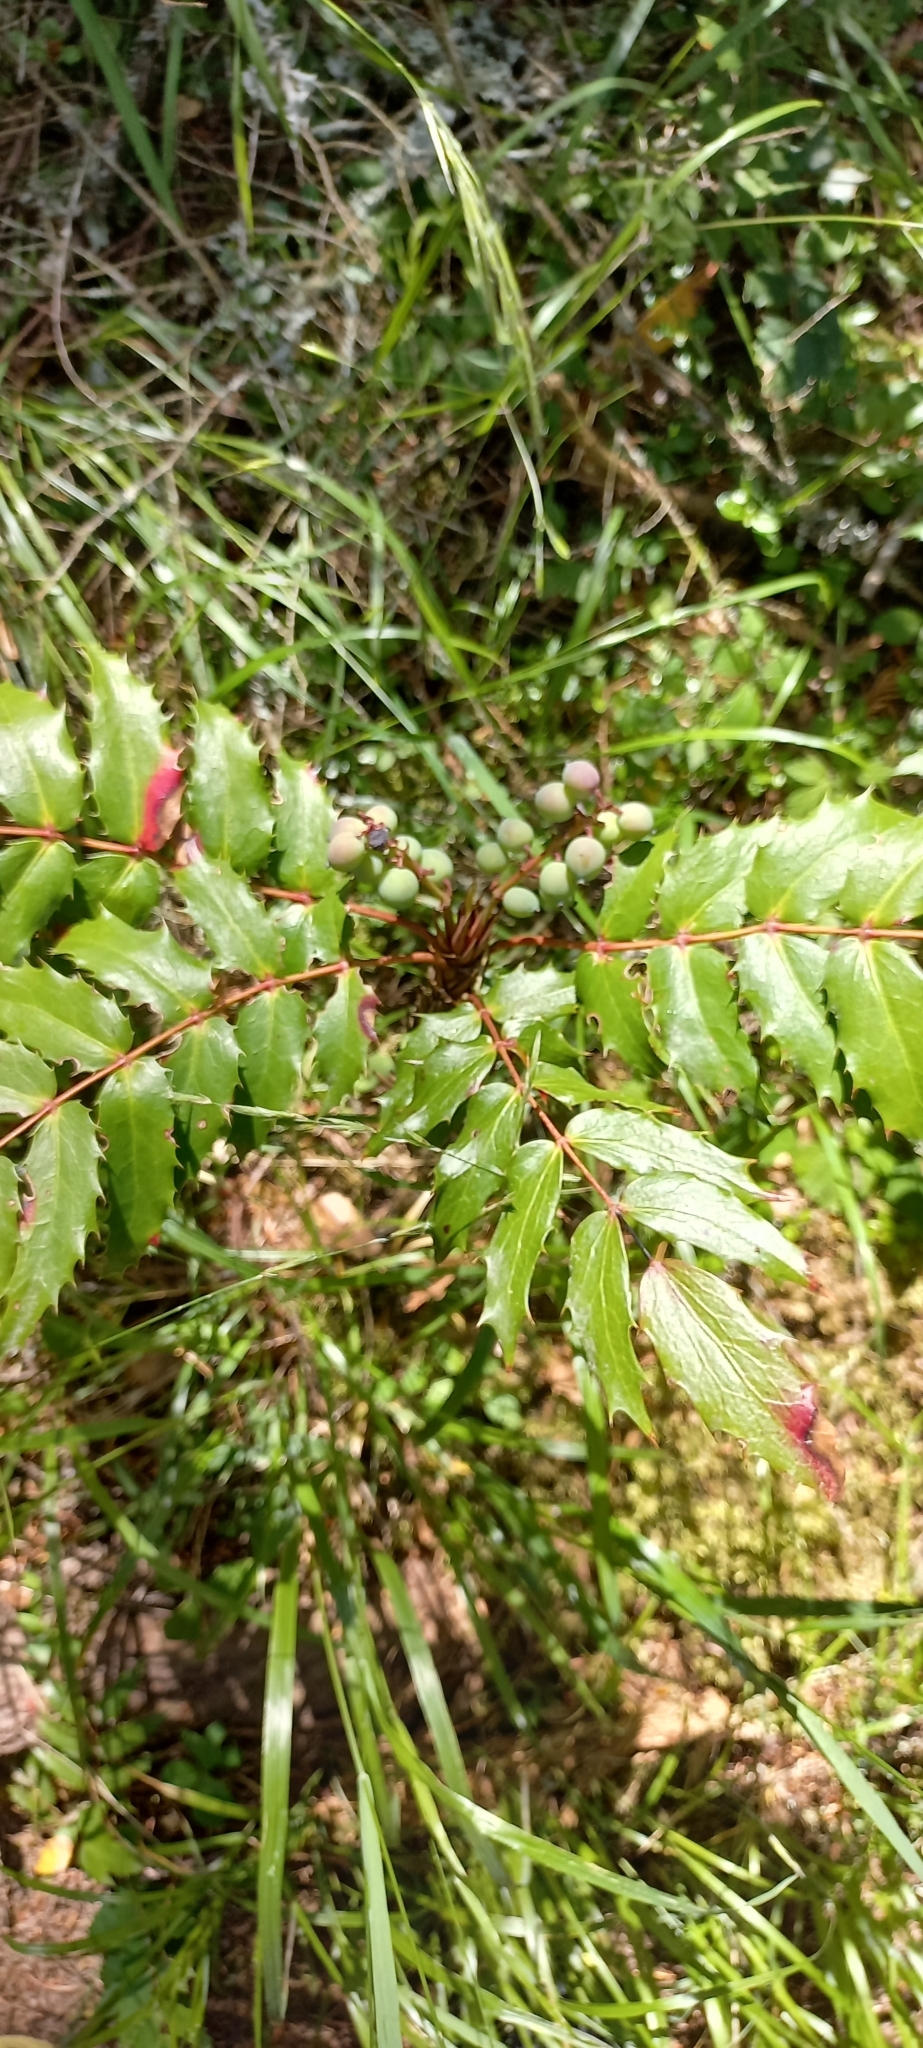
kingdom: Plantae
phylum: Tracheophyta
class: Magnoliopsida
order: Ranunculales
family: Berberidaceae
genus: Mahonia
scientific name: Mahonia nervosa
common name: Cascade oregon-grape
